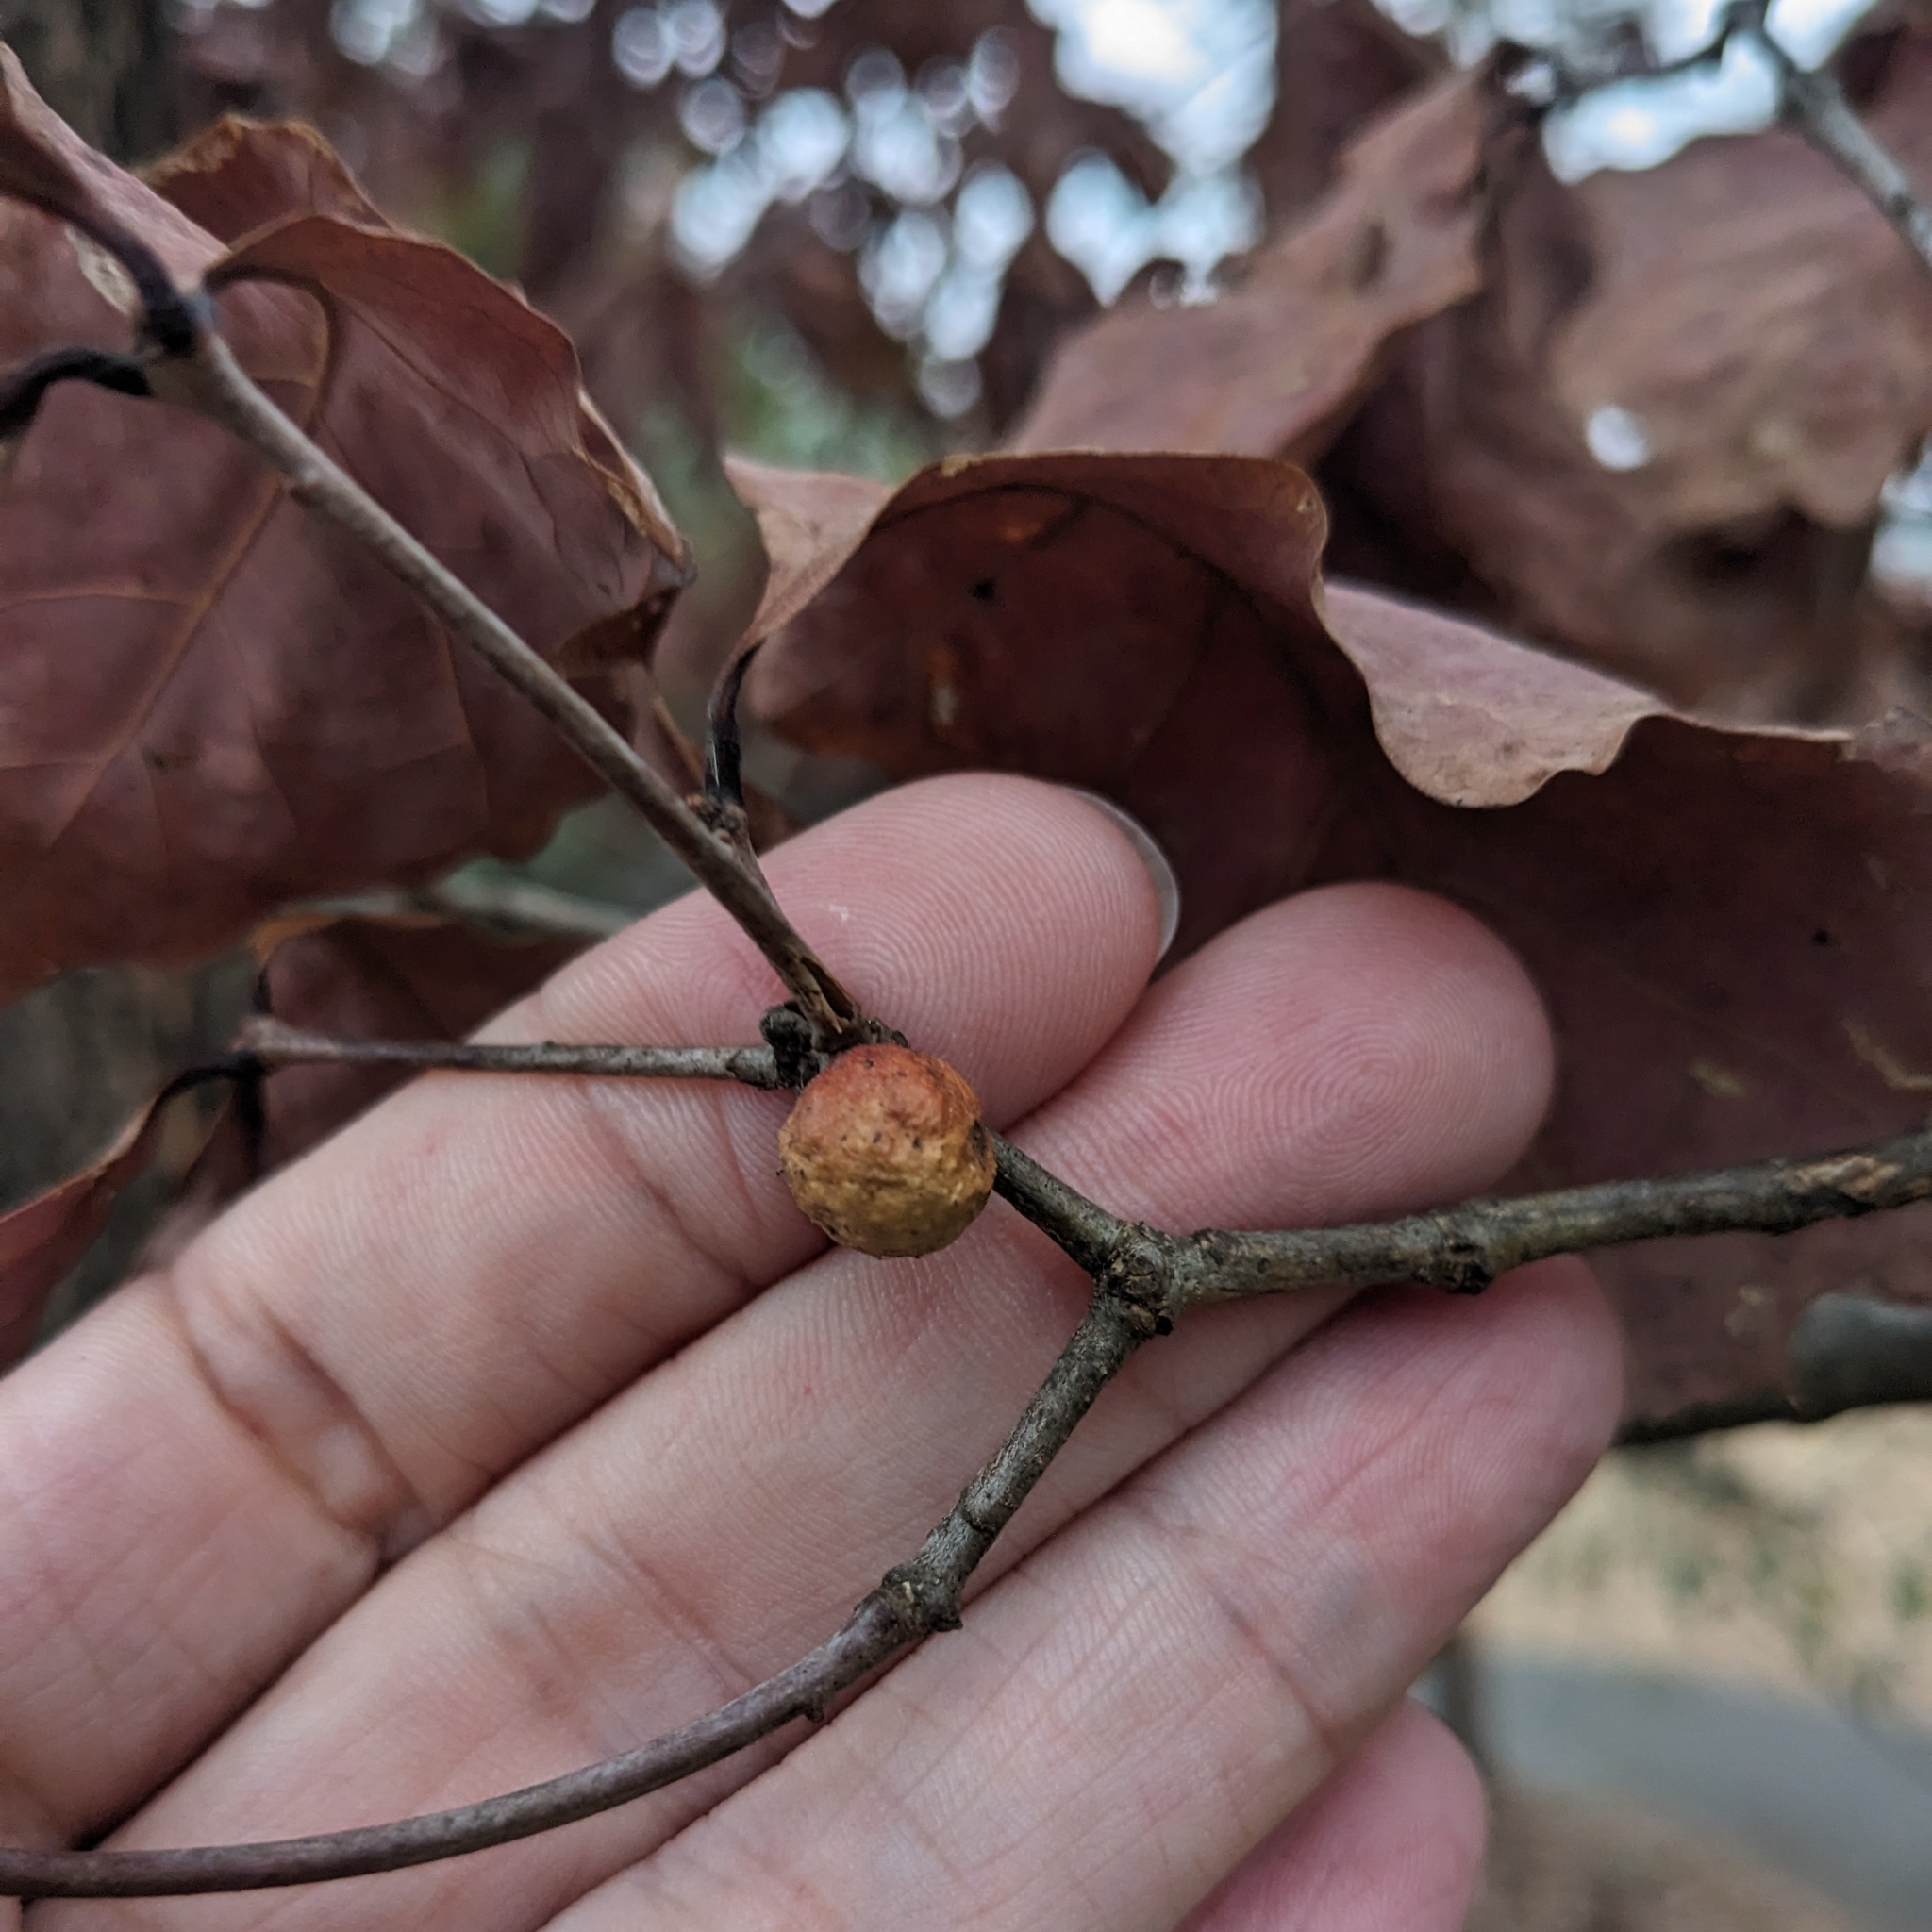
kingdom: Animalia
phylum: Arthropoda
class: Insecta
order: Hymenoptera
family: Cynipidae
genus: Disholcaspis
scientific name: Disholcaspis
